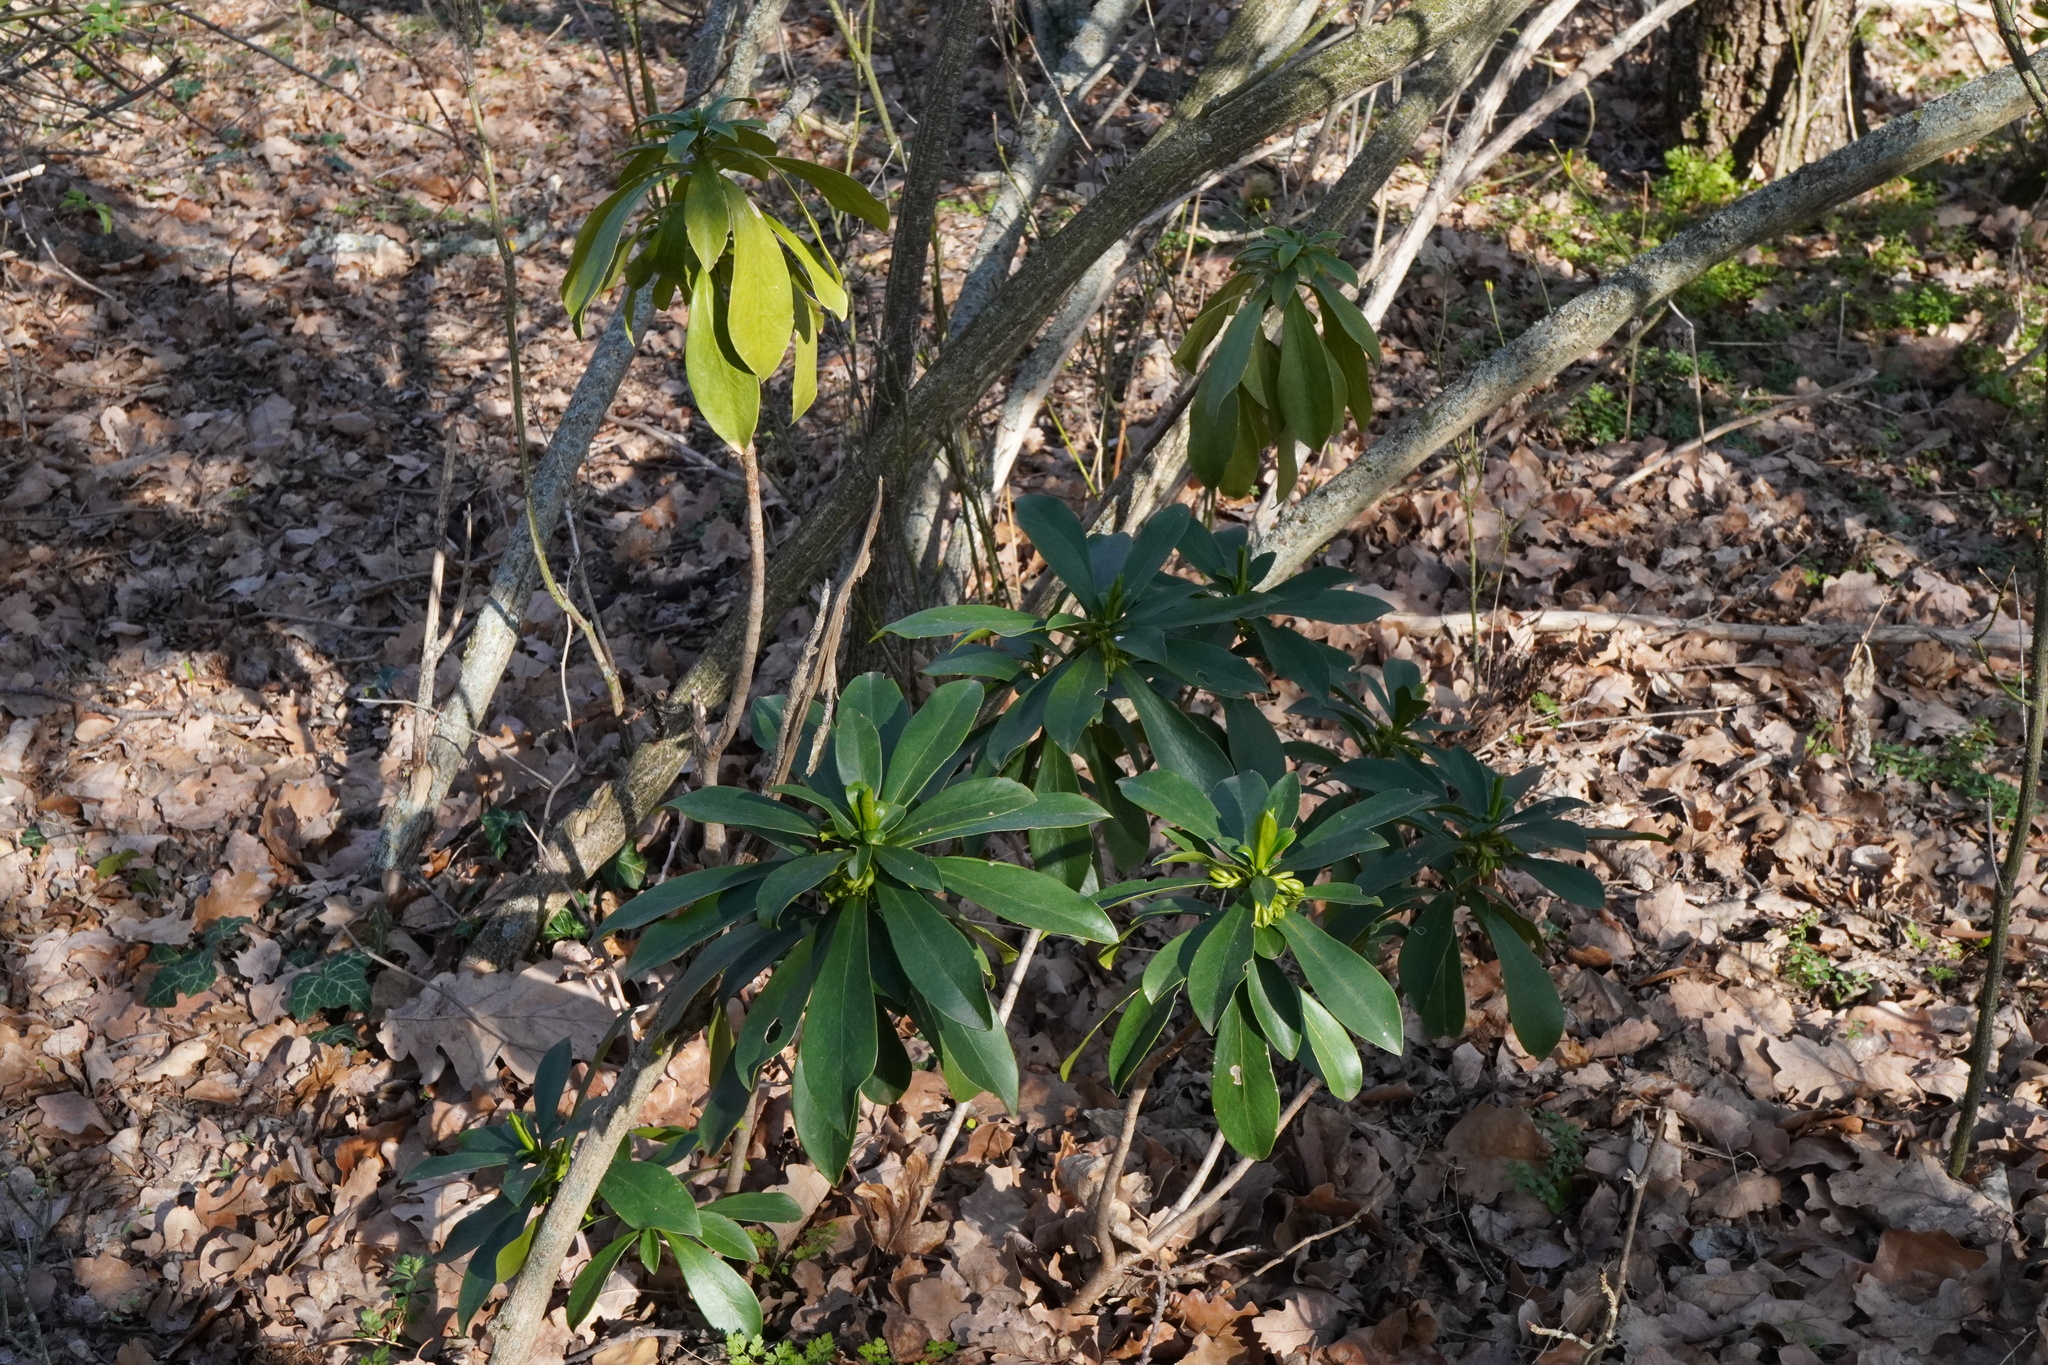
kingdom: Plantae
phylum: Tracheophyta
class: Magnoliopsida
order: Malvales
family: Thymelaeaceae
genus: Daphne
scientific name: Daphne laureola
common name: Spurge-laurel
